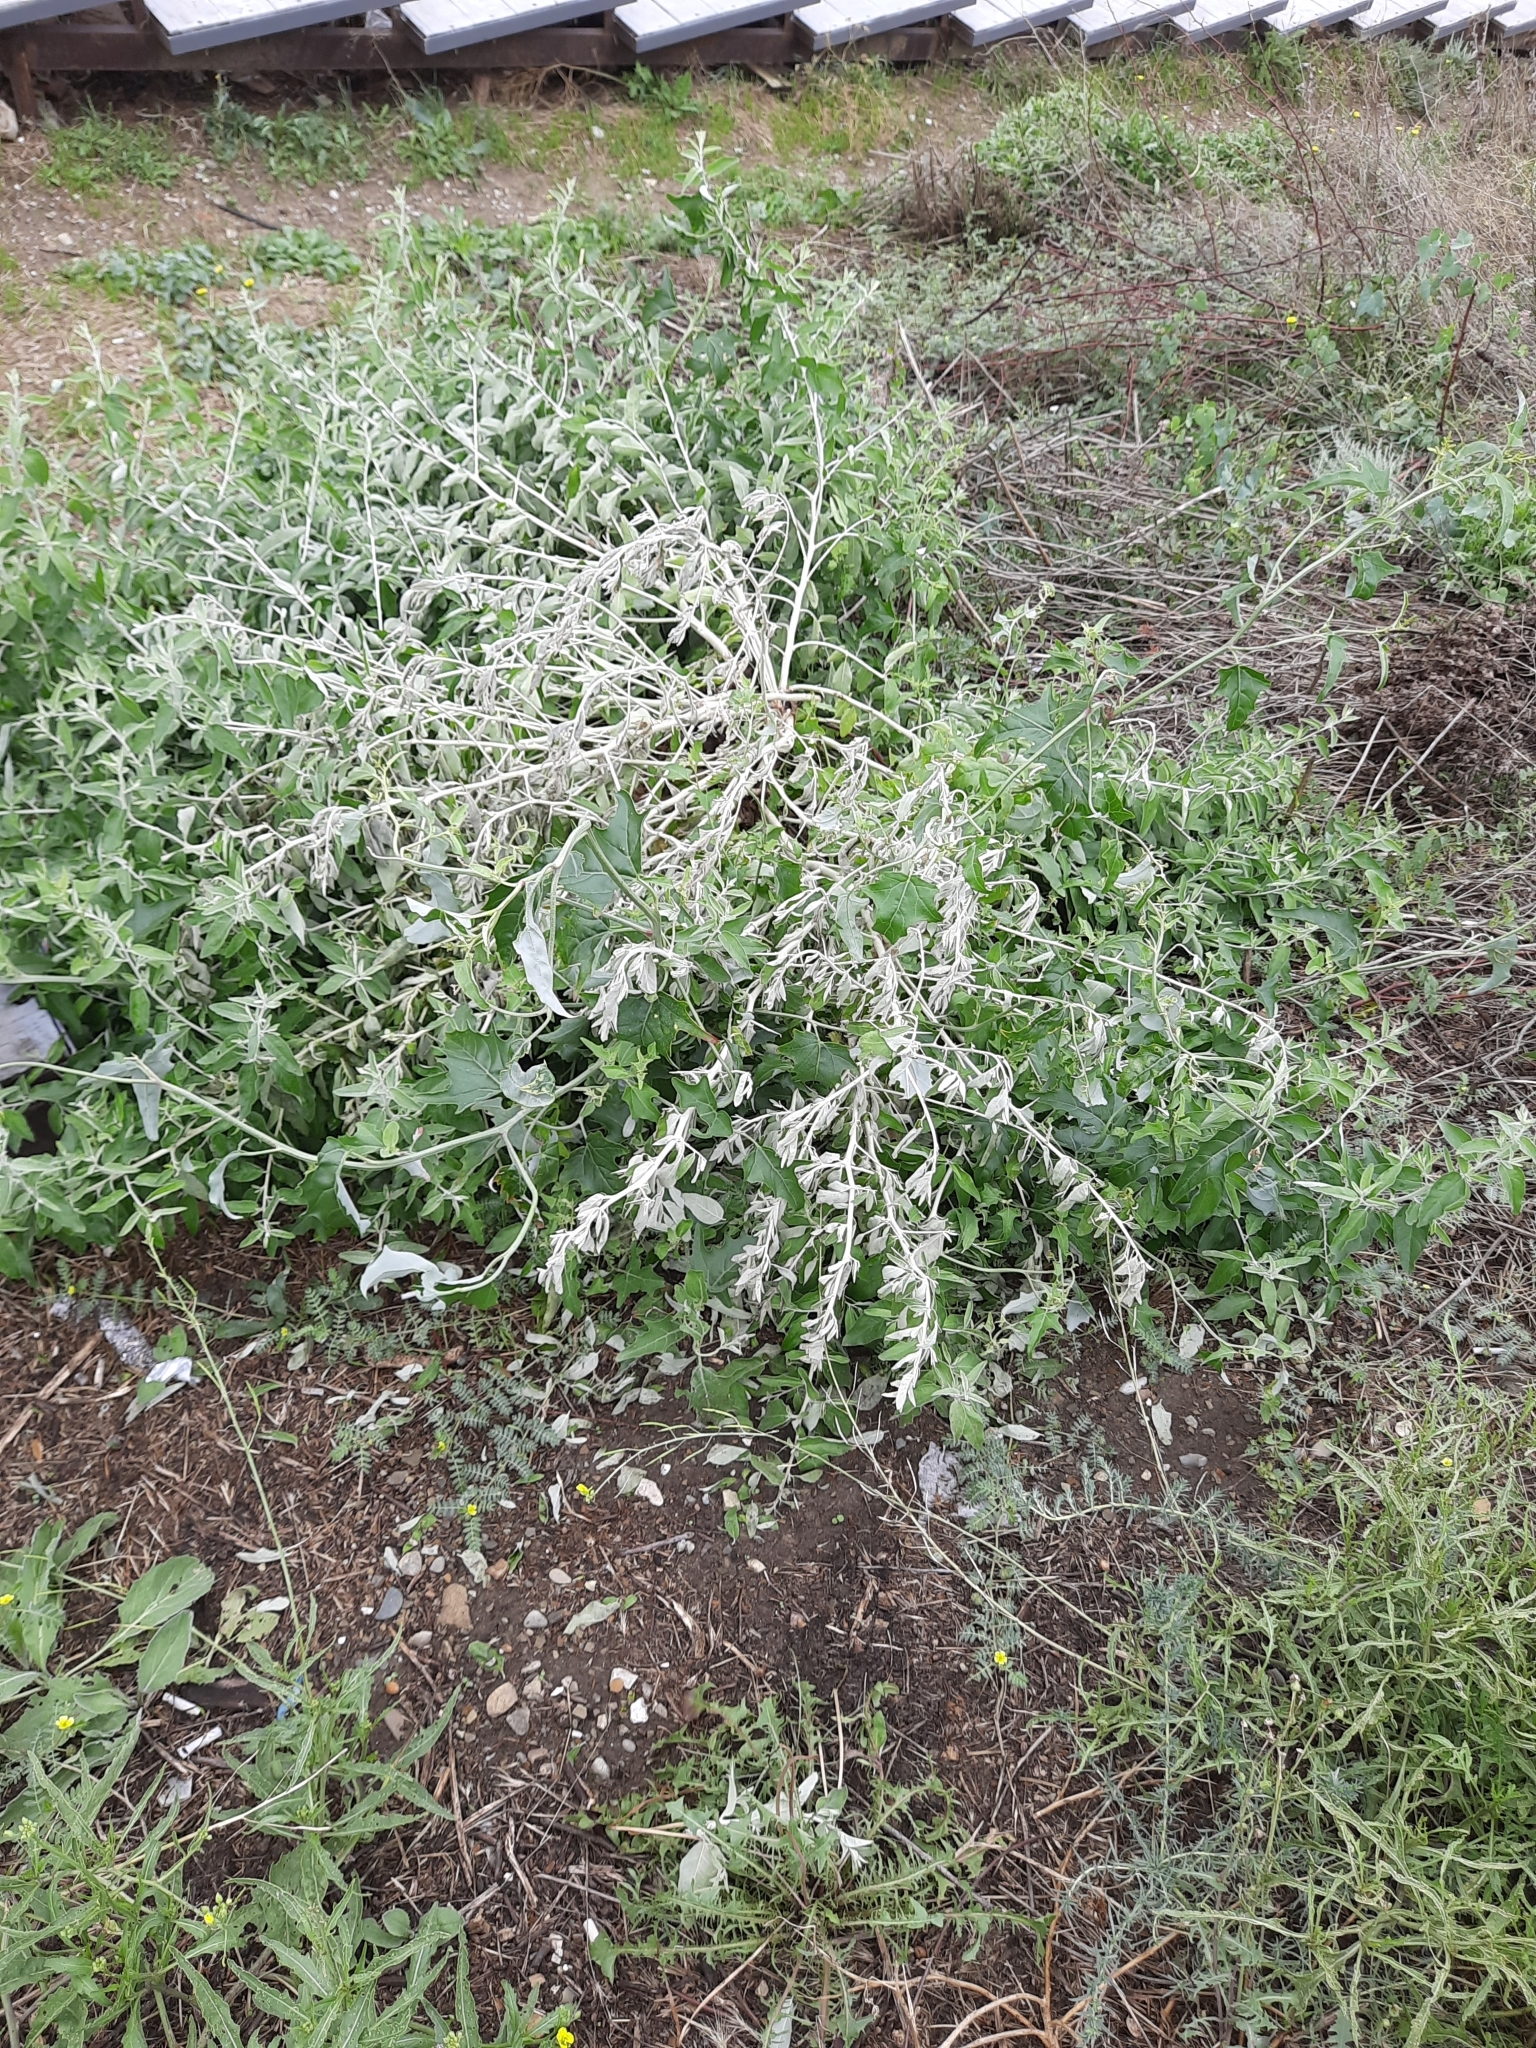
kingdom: Plantae
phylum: Tracheophyta
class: Magnoliopsida
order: Rosales
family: Elaeagnaceae
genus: Elaeagnus
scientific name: Elaeagnus angustifolia
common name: Russian olive
